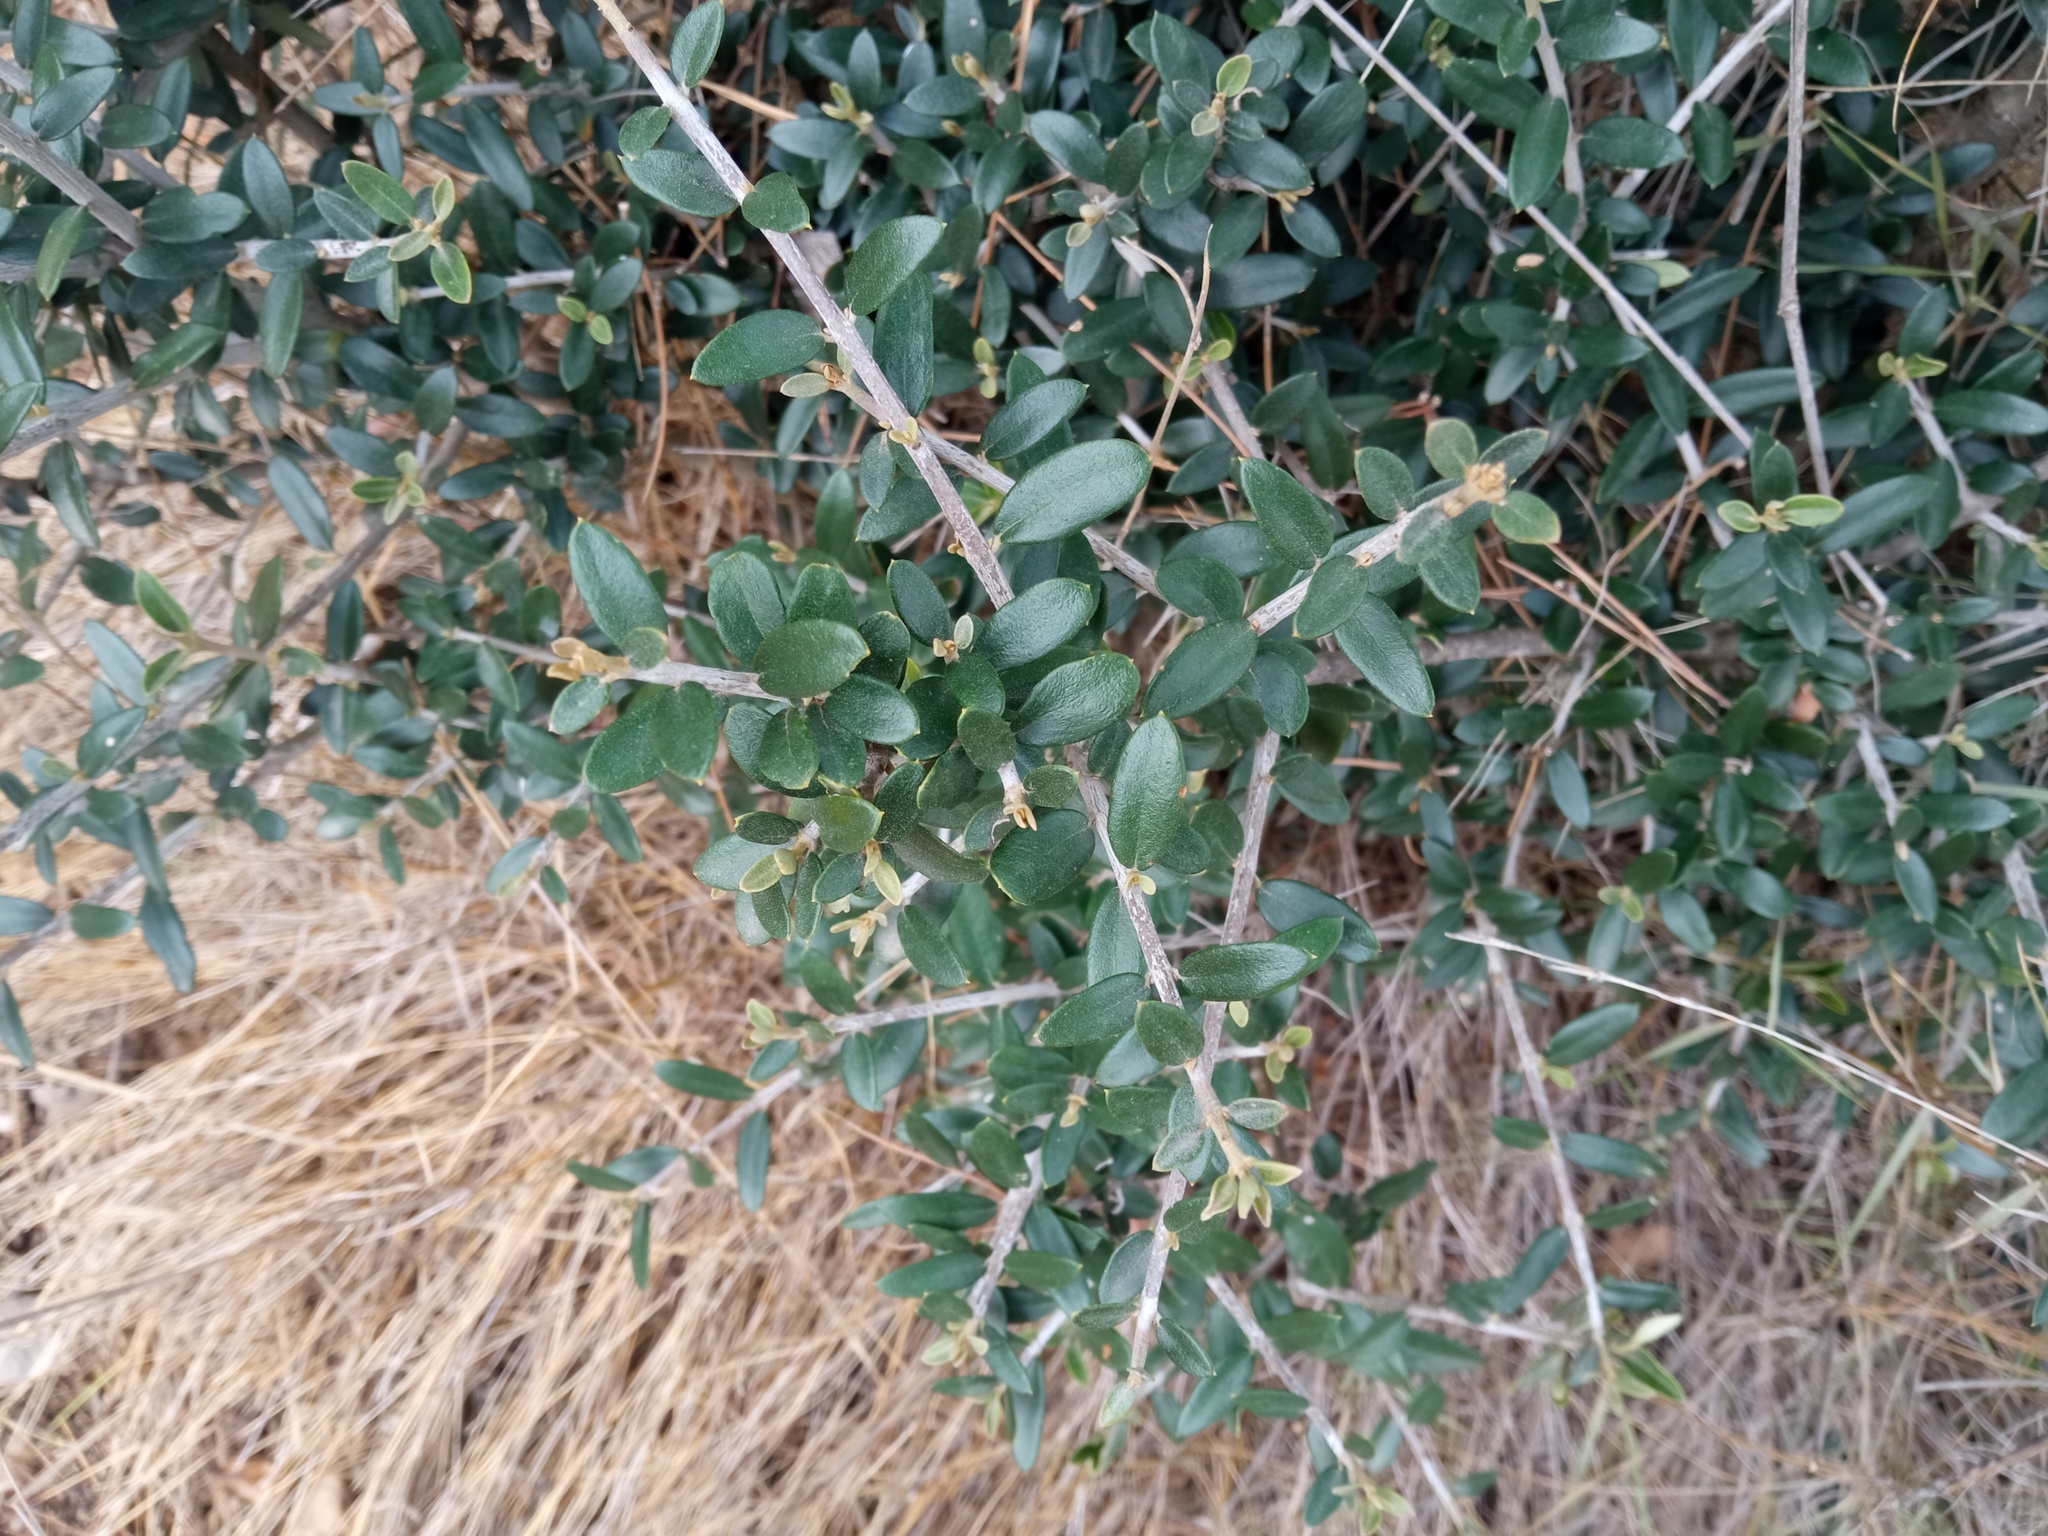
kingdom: Plantae
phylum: Tracheophyta
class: Magnoliopsida
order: Lamiales
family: Oleaceae
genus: Olea
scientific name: Olea europaea
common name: Olive
